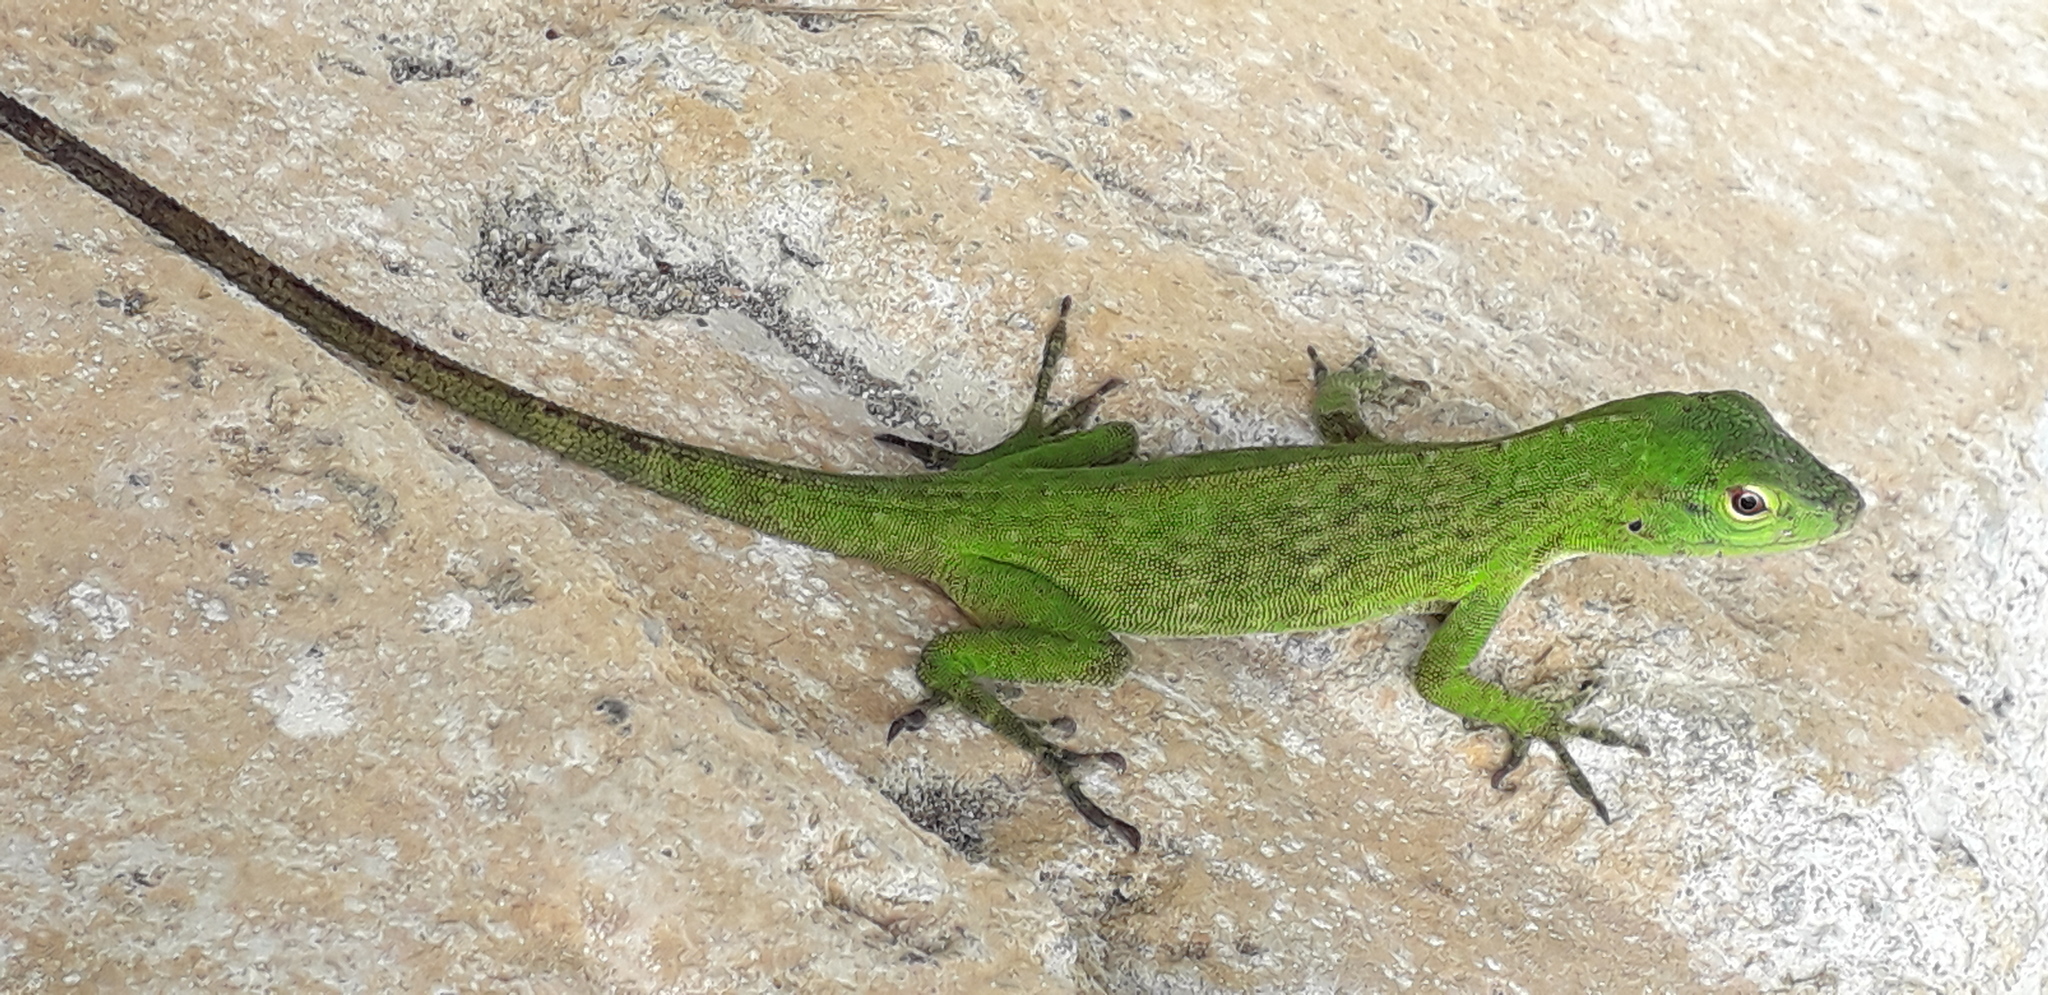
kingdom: Animalia
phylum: Chordata
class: Squamata
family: Dactyloidae
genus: Anolis
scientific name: Anolis biporcatus
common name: Giant green anole
